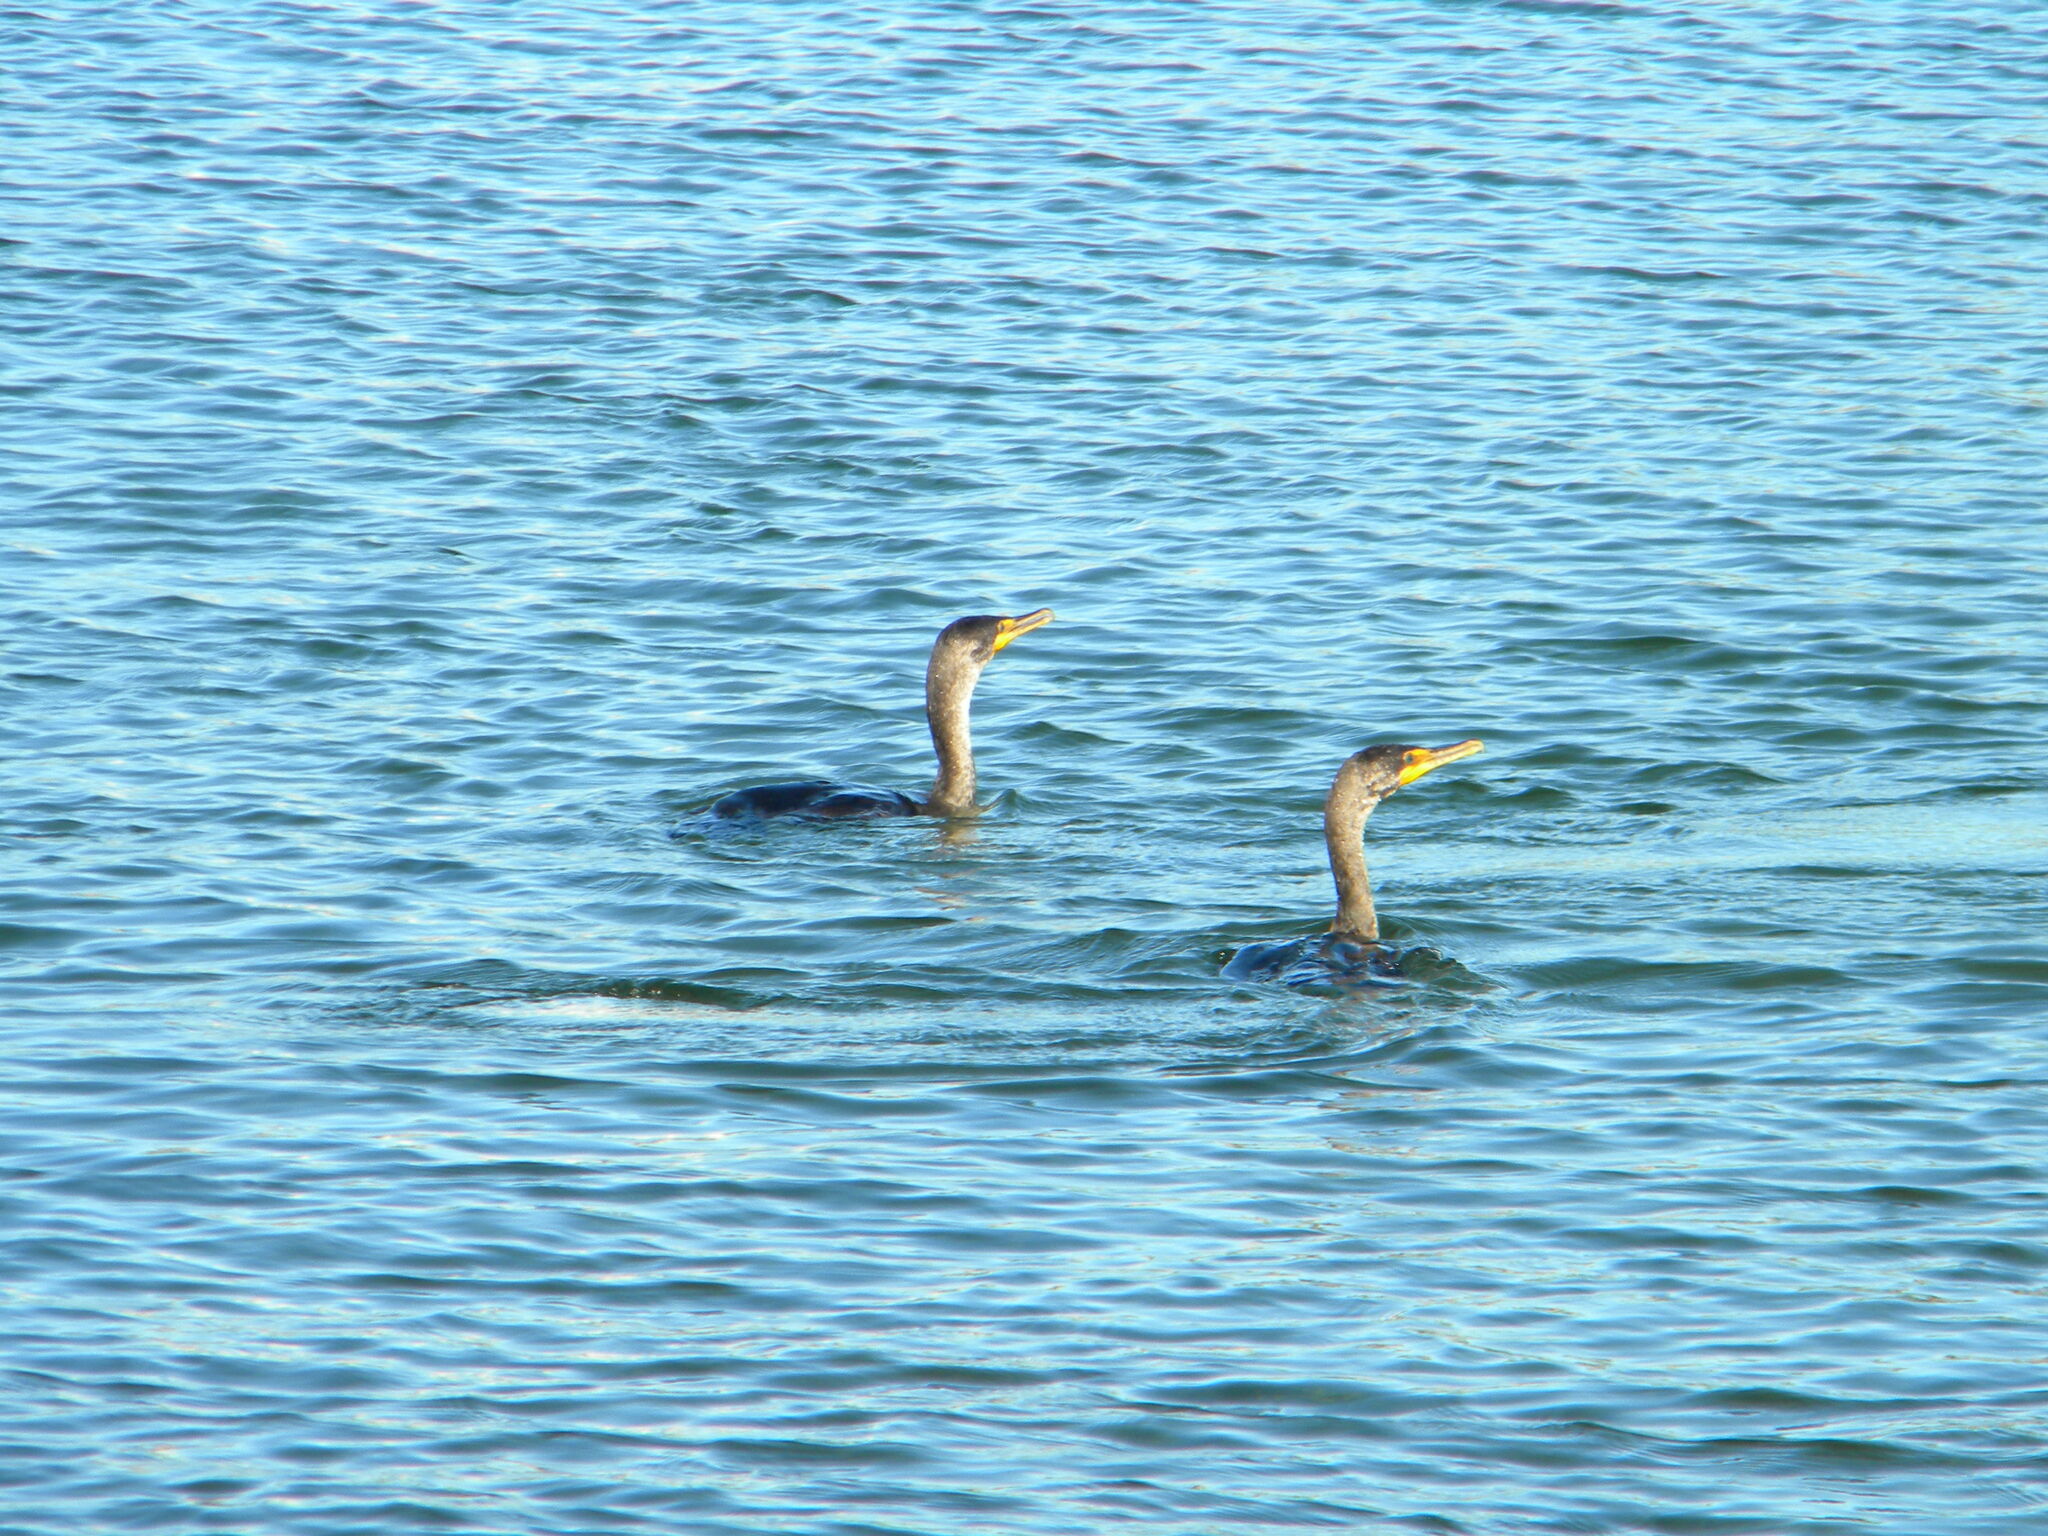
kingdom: Animalia
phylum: Chordata
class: Aves
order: Suliformes
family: Phalacrocoracidae
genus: Phalacrocorax
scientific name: Phalacrocorax auritus
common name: Double-crested cormorant
